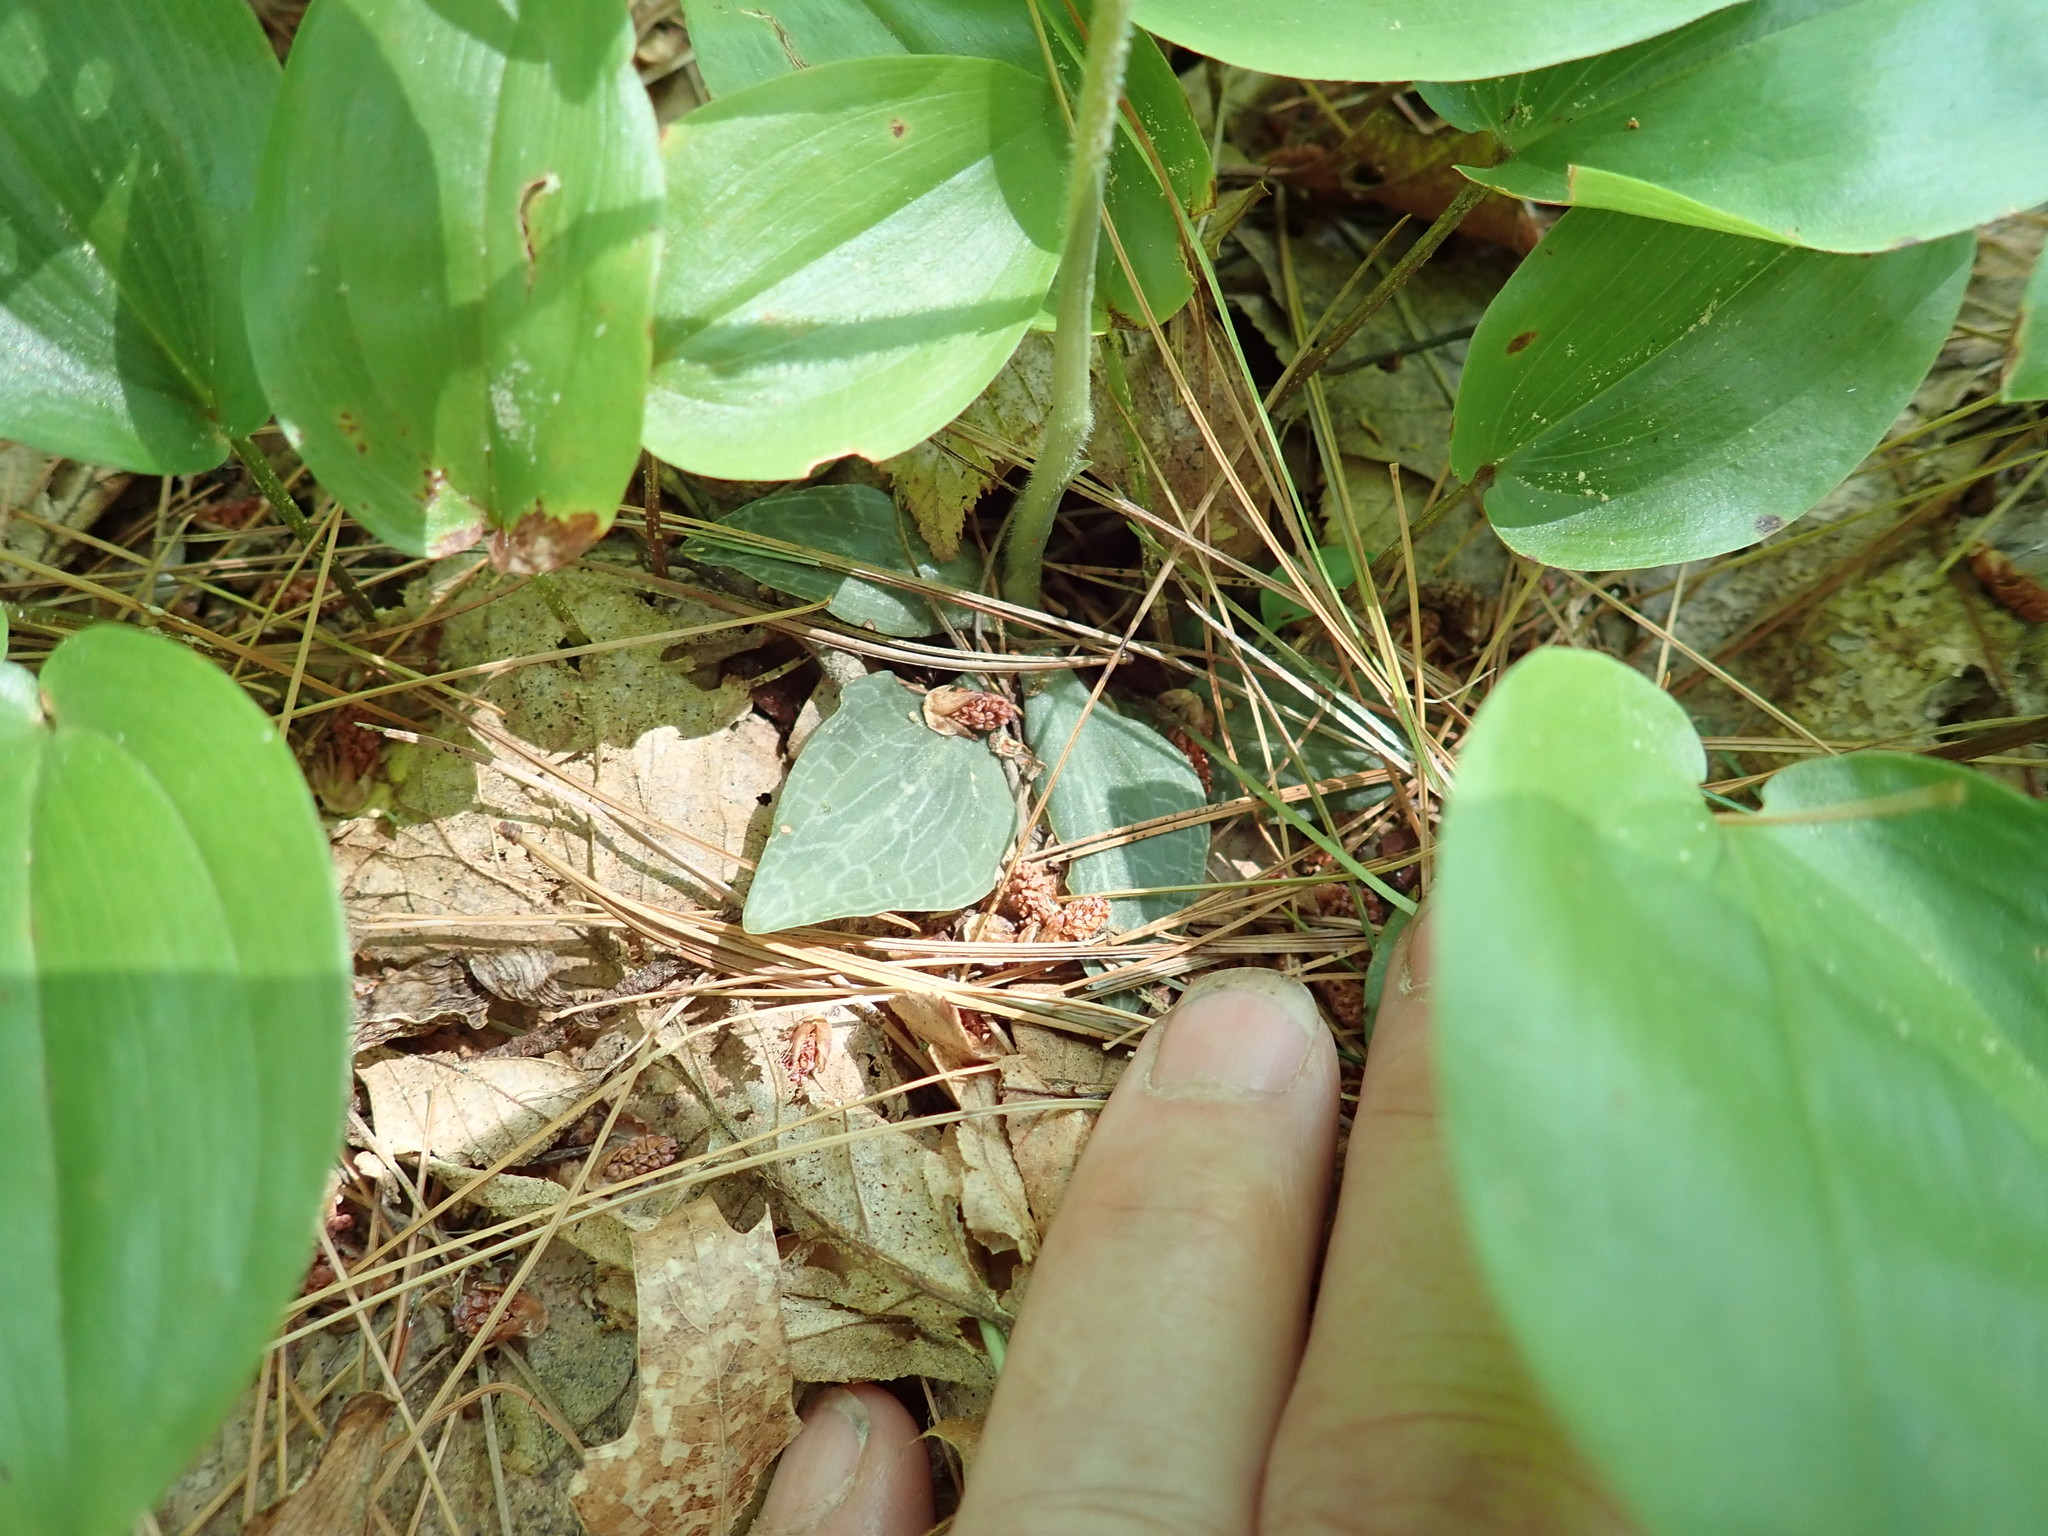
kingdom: Plantae
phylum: Tracheophyta
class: Liliopsida
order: Asparagales
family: Orchidaceae
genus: Goodyera
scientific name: Goodyera tesselata
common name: Checkered rattlesnake-plantain
